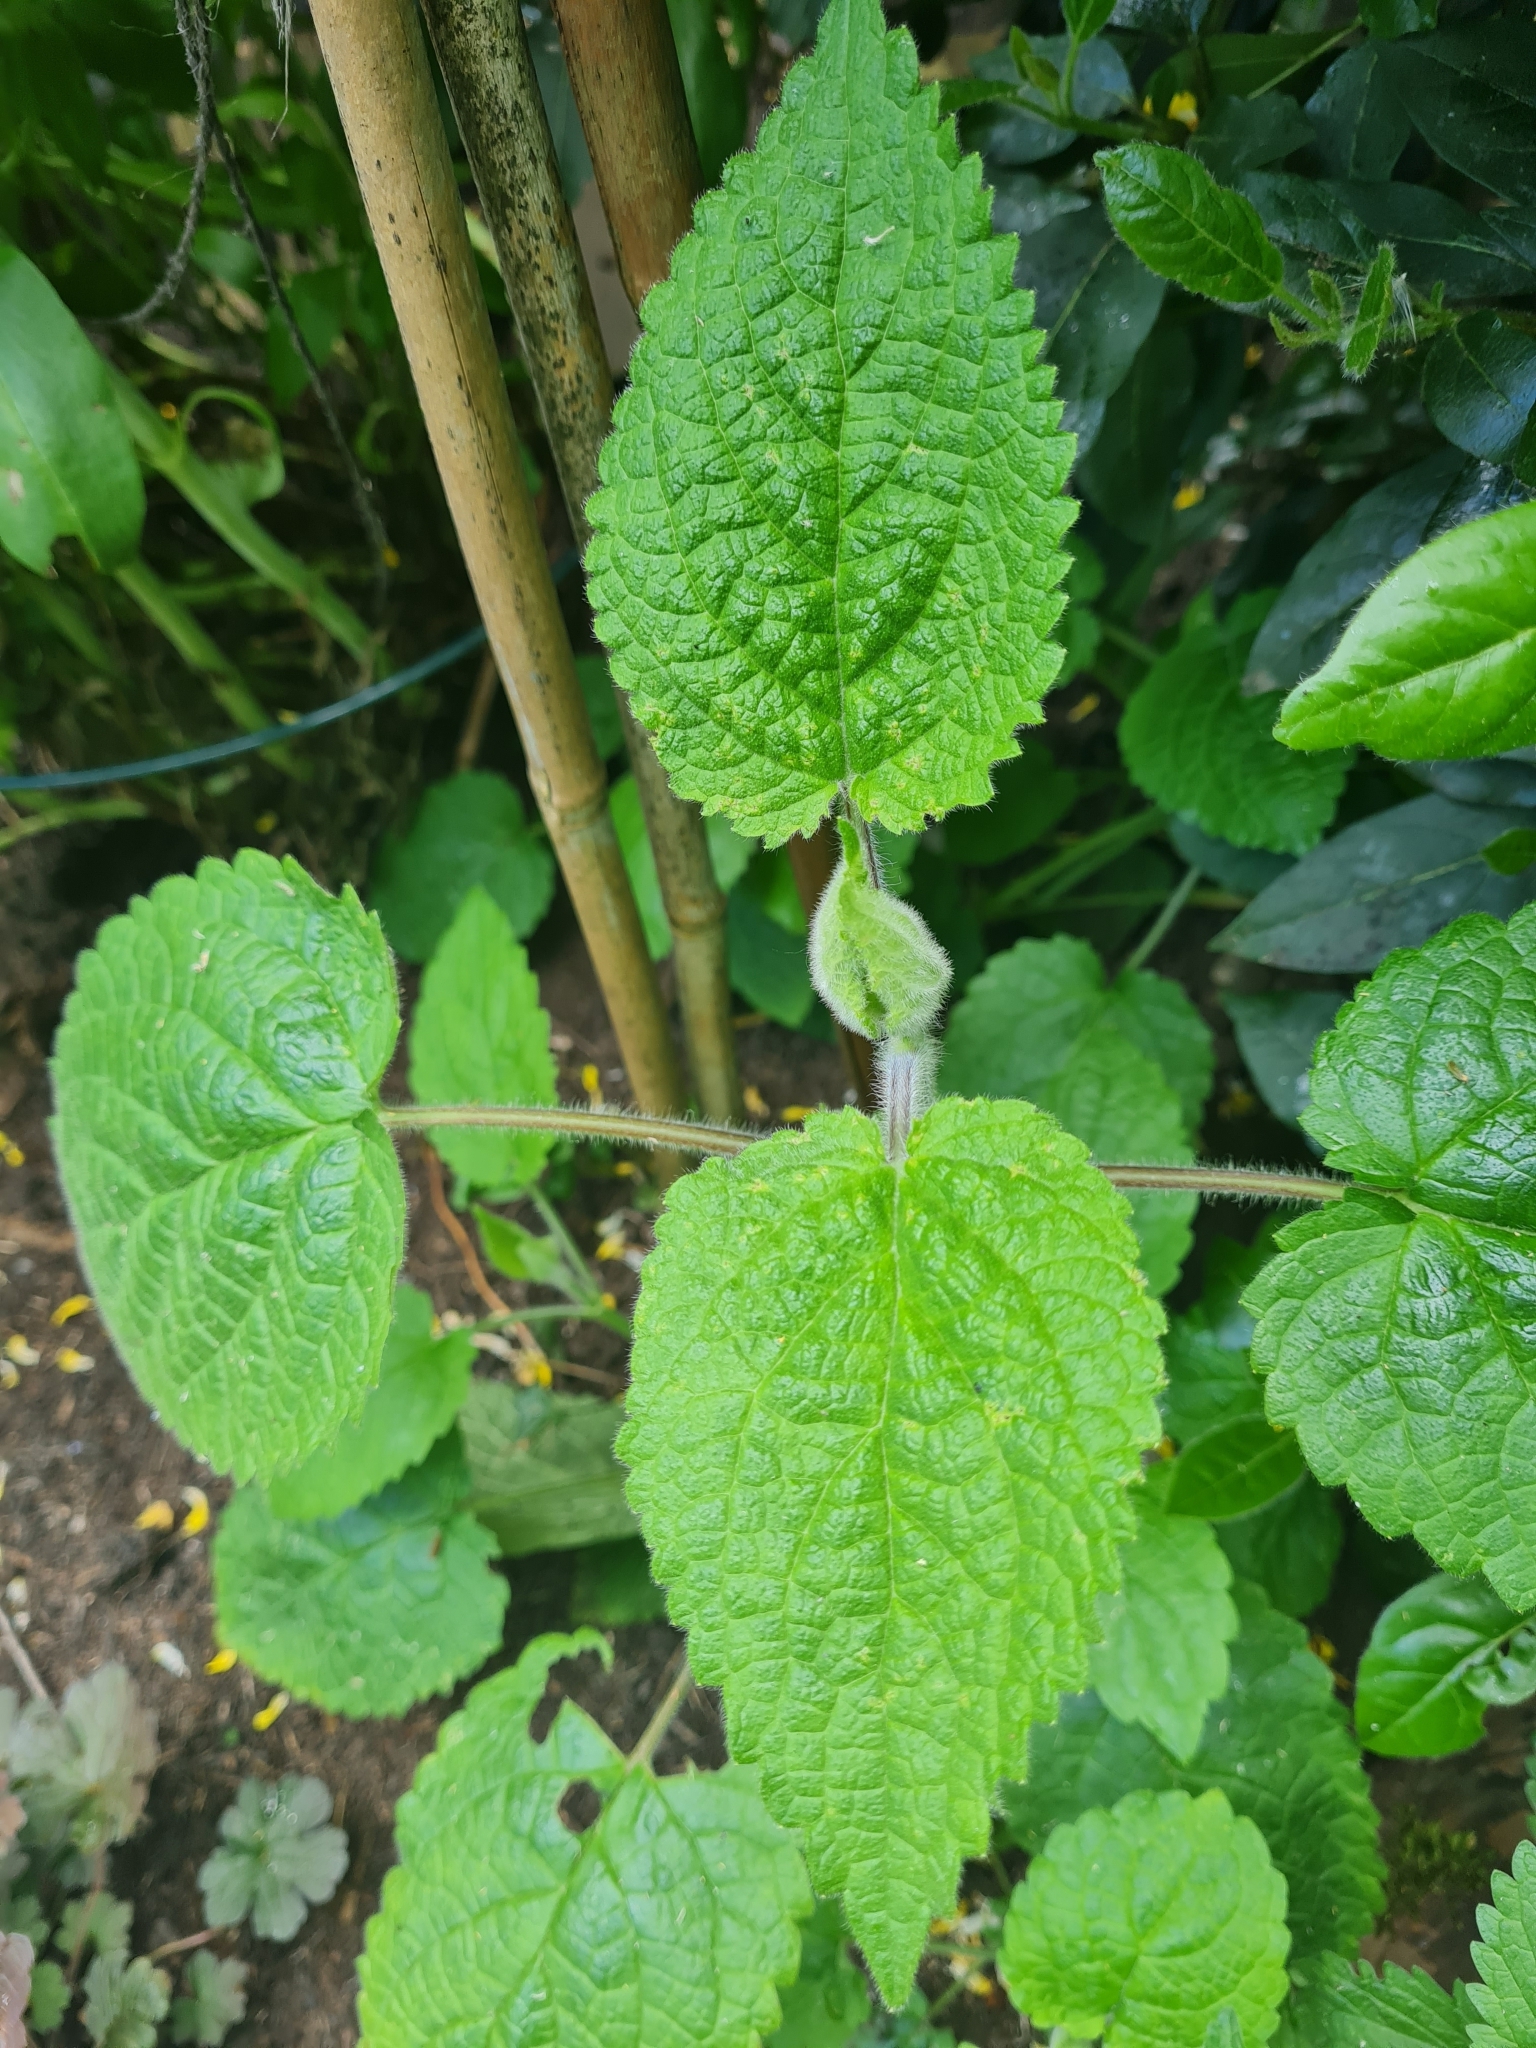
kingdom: Plantae
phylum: Tracheophyta
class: Magnoliopsida
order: Lamiales
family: Lamiaceae
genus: Stachys
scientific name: Stachys sylvatica
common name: Hedge woundwort
